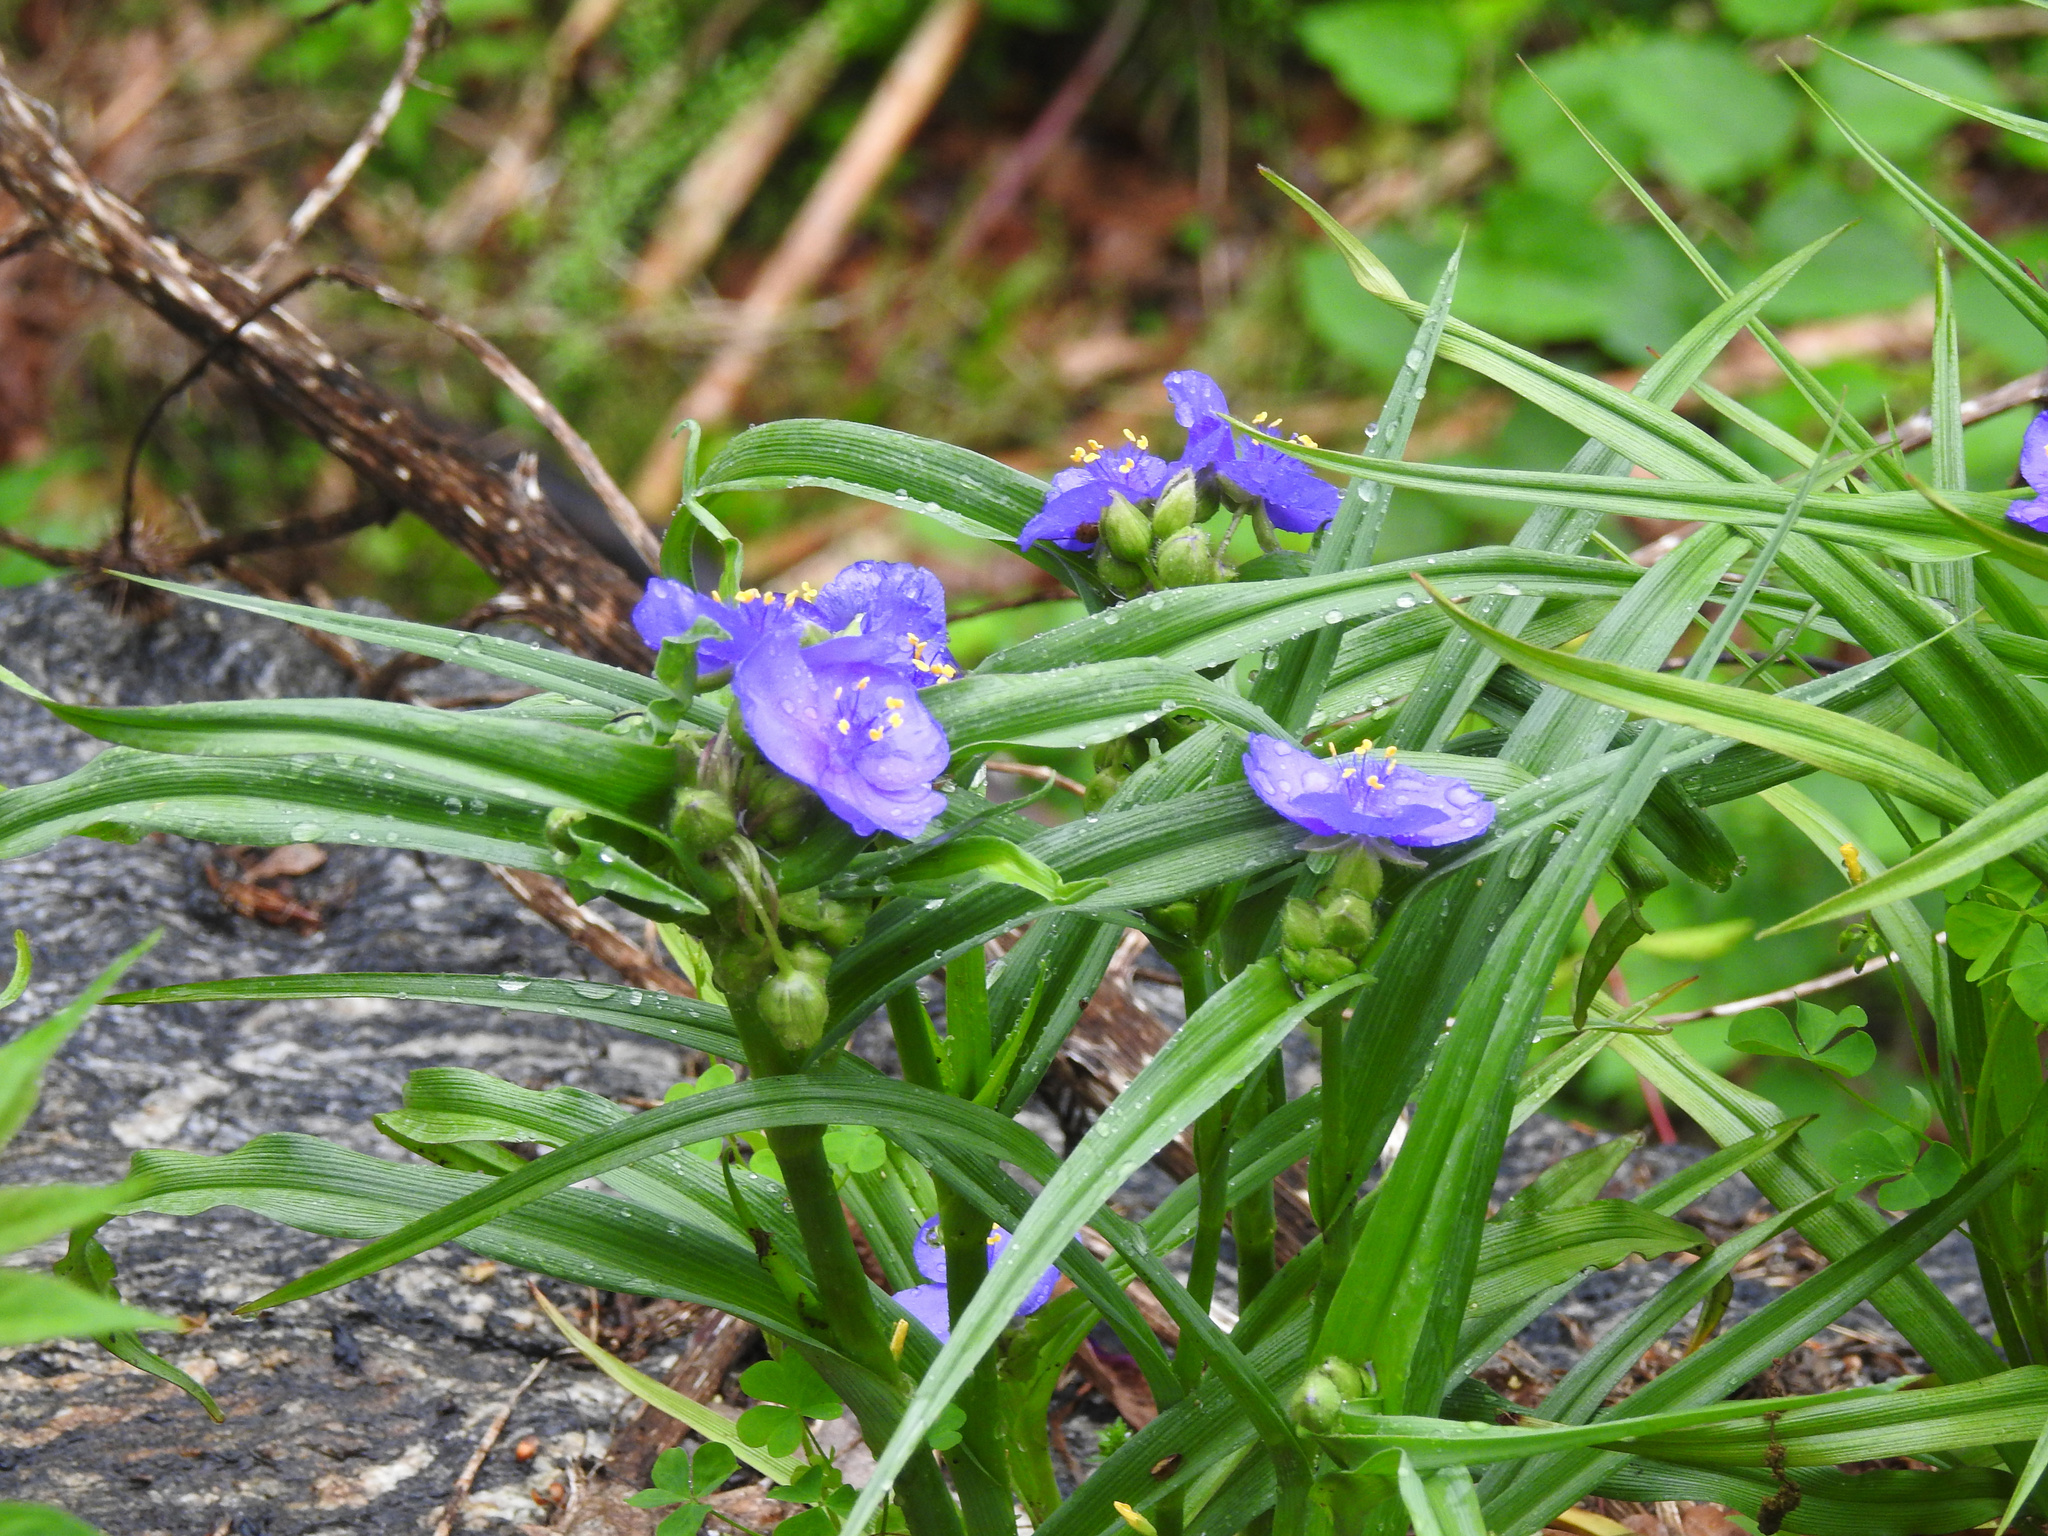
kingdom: Plantae
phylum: Tracheophyta
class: Liliopsida
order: Commelinales
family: Commelinaceae
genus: Tradescantia
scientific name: Tradescantia virginiana
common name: Spiderwort
